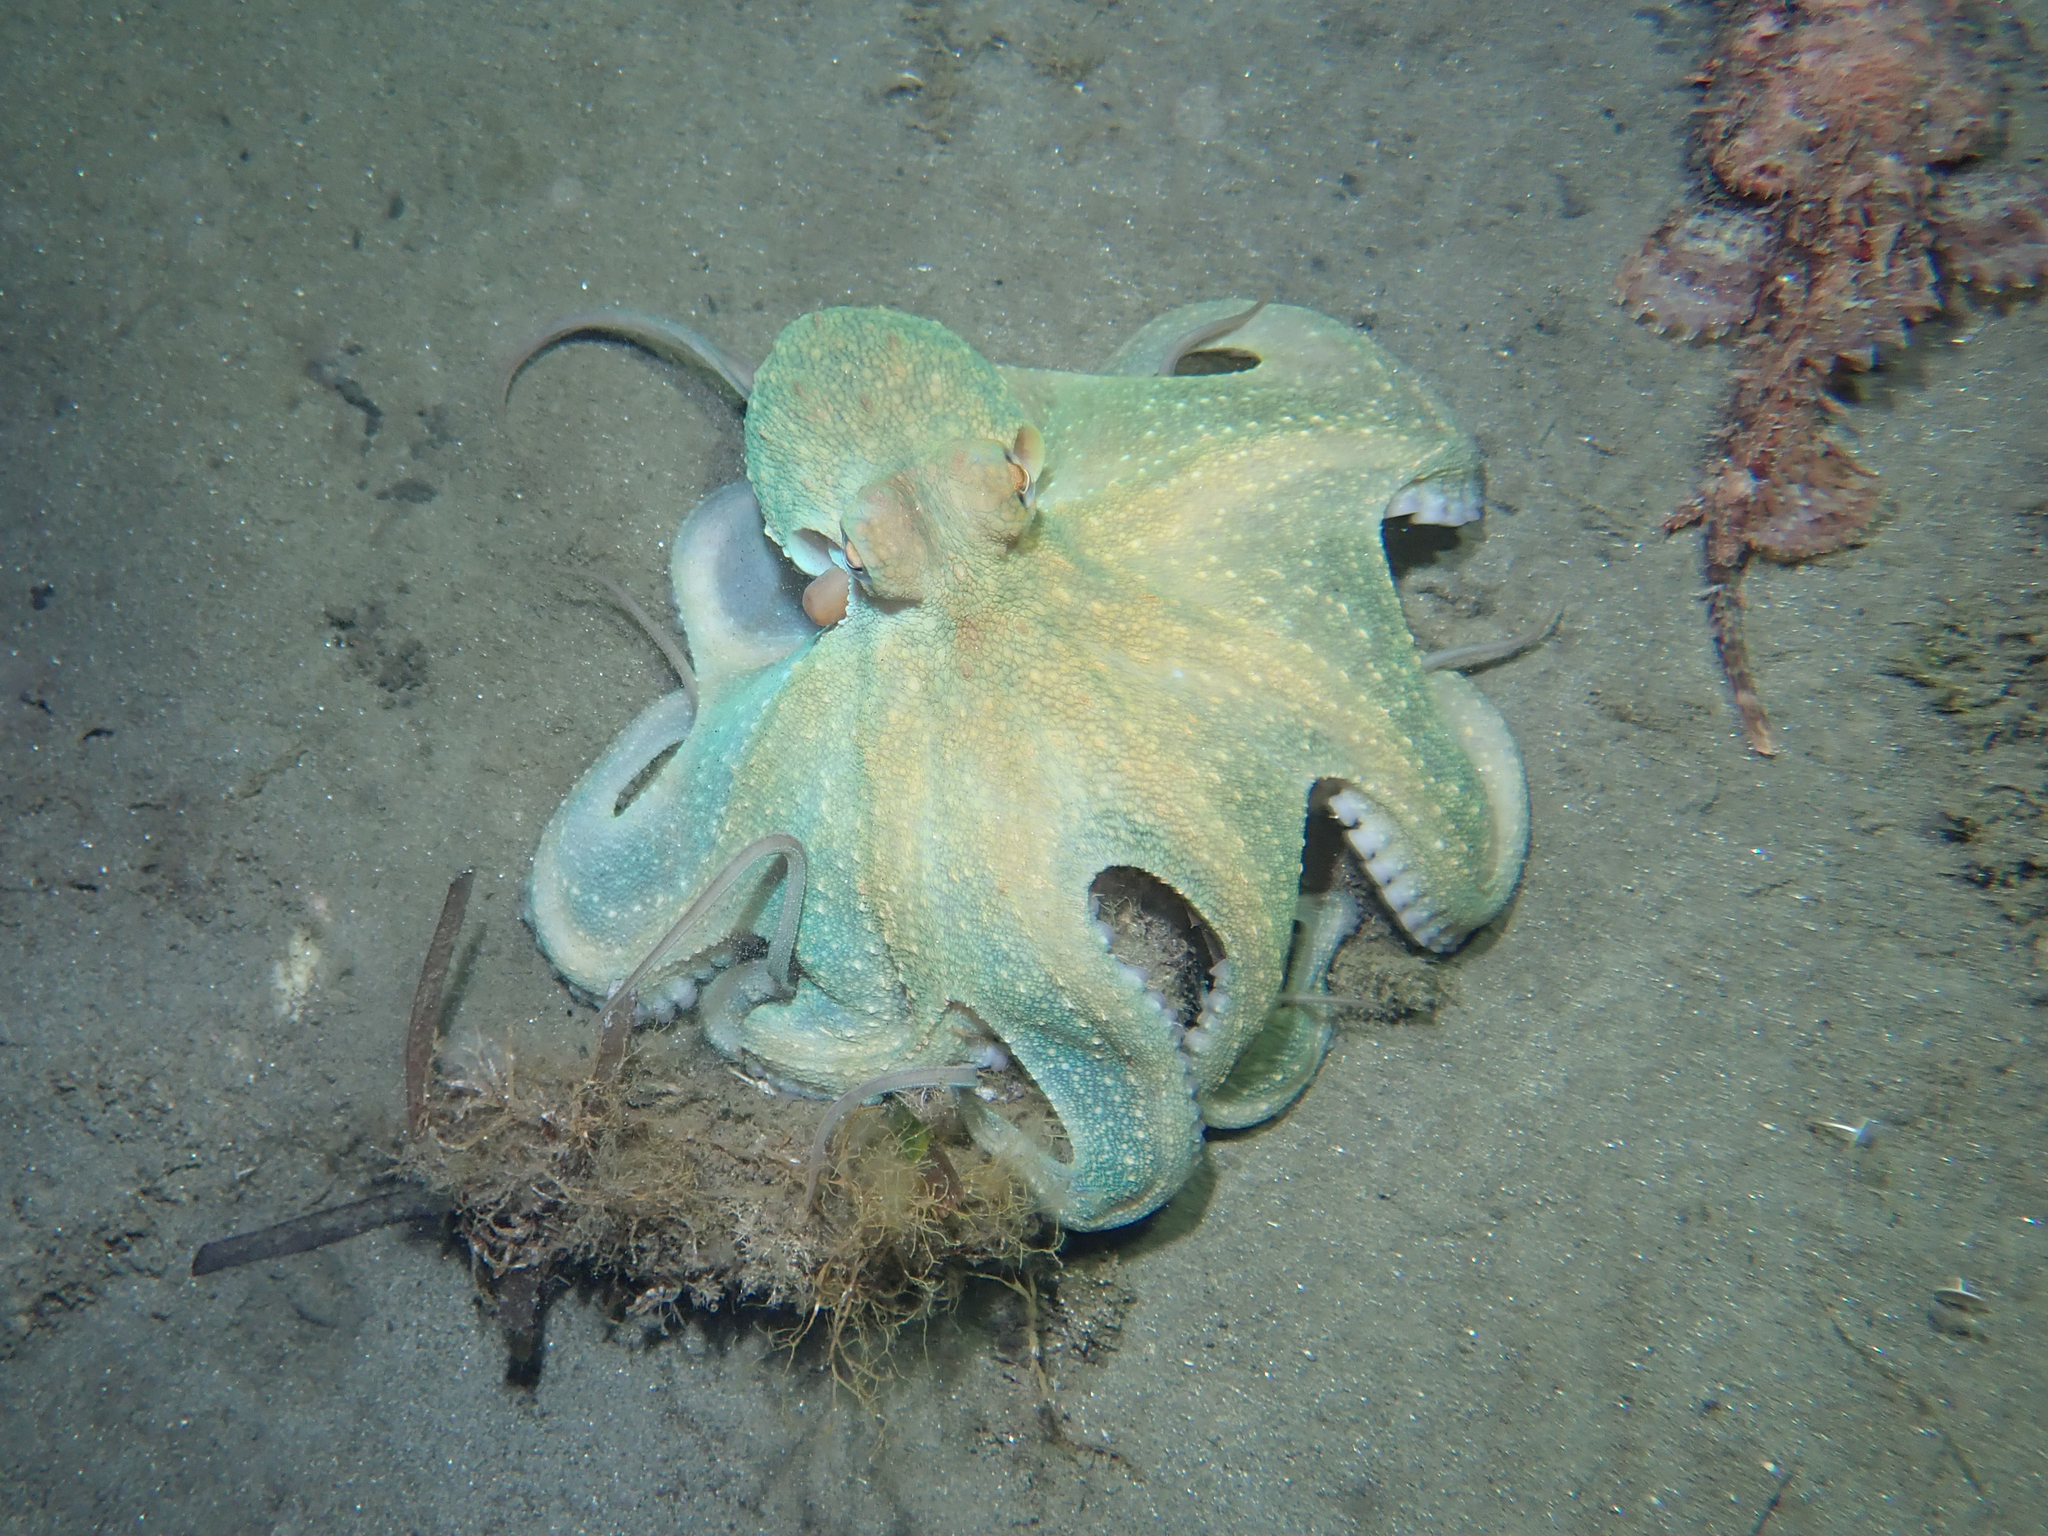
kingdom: Animalia
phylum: Mollusca
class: Cephalopoda
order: Octopoda
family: Octopodidae
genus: Octopus
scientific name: Octopus vulgaris
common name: Common octopus
